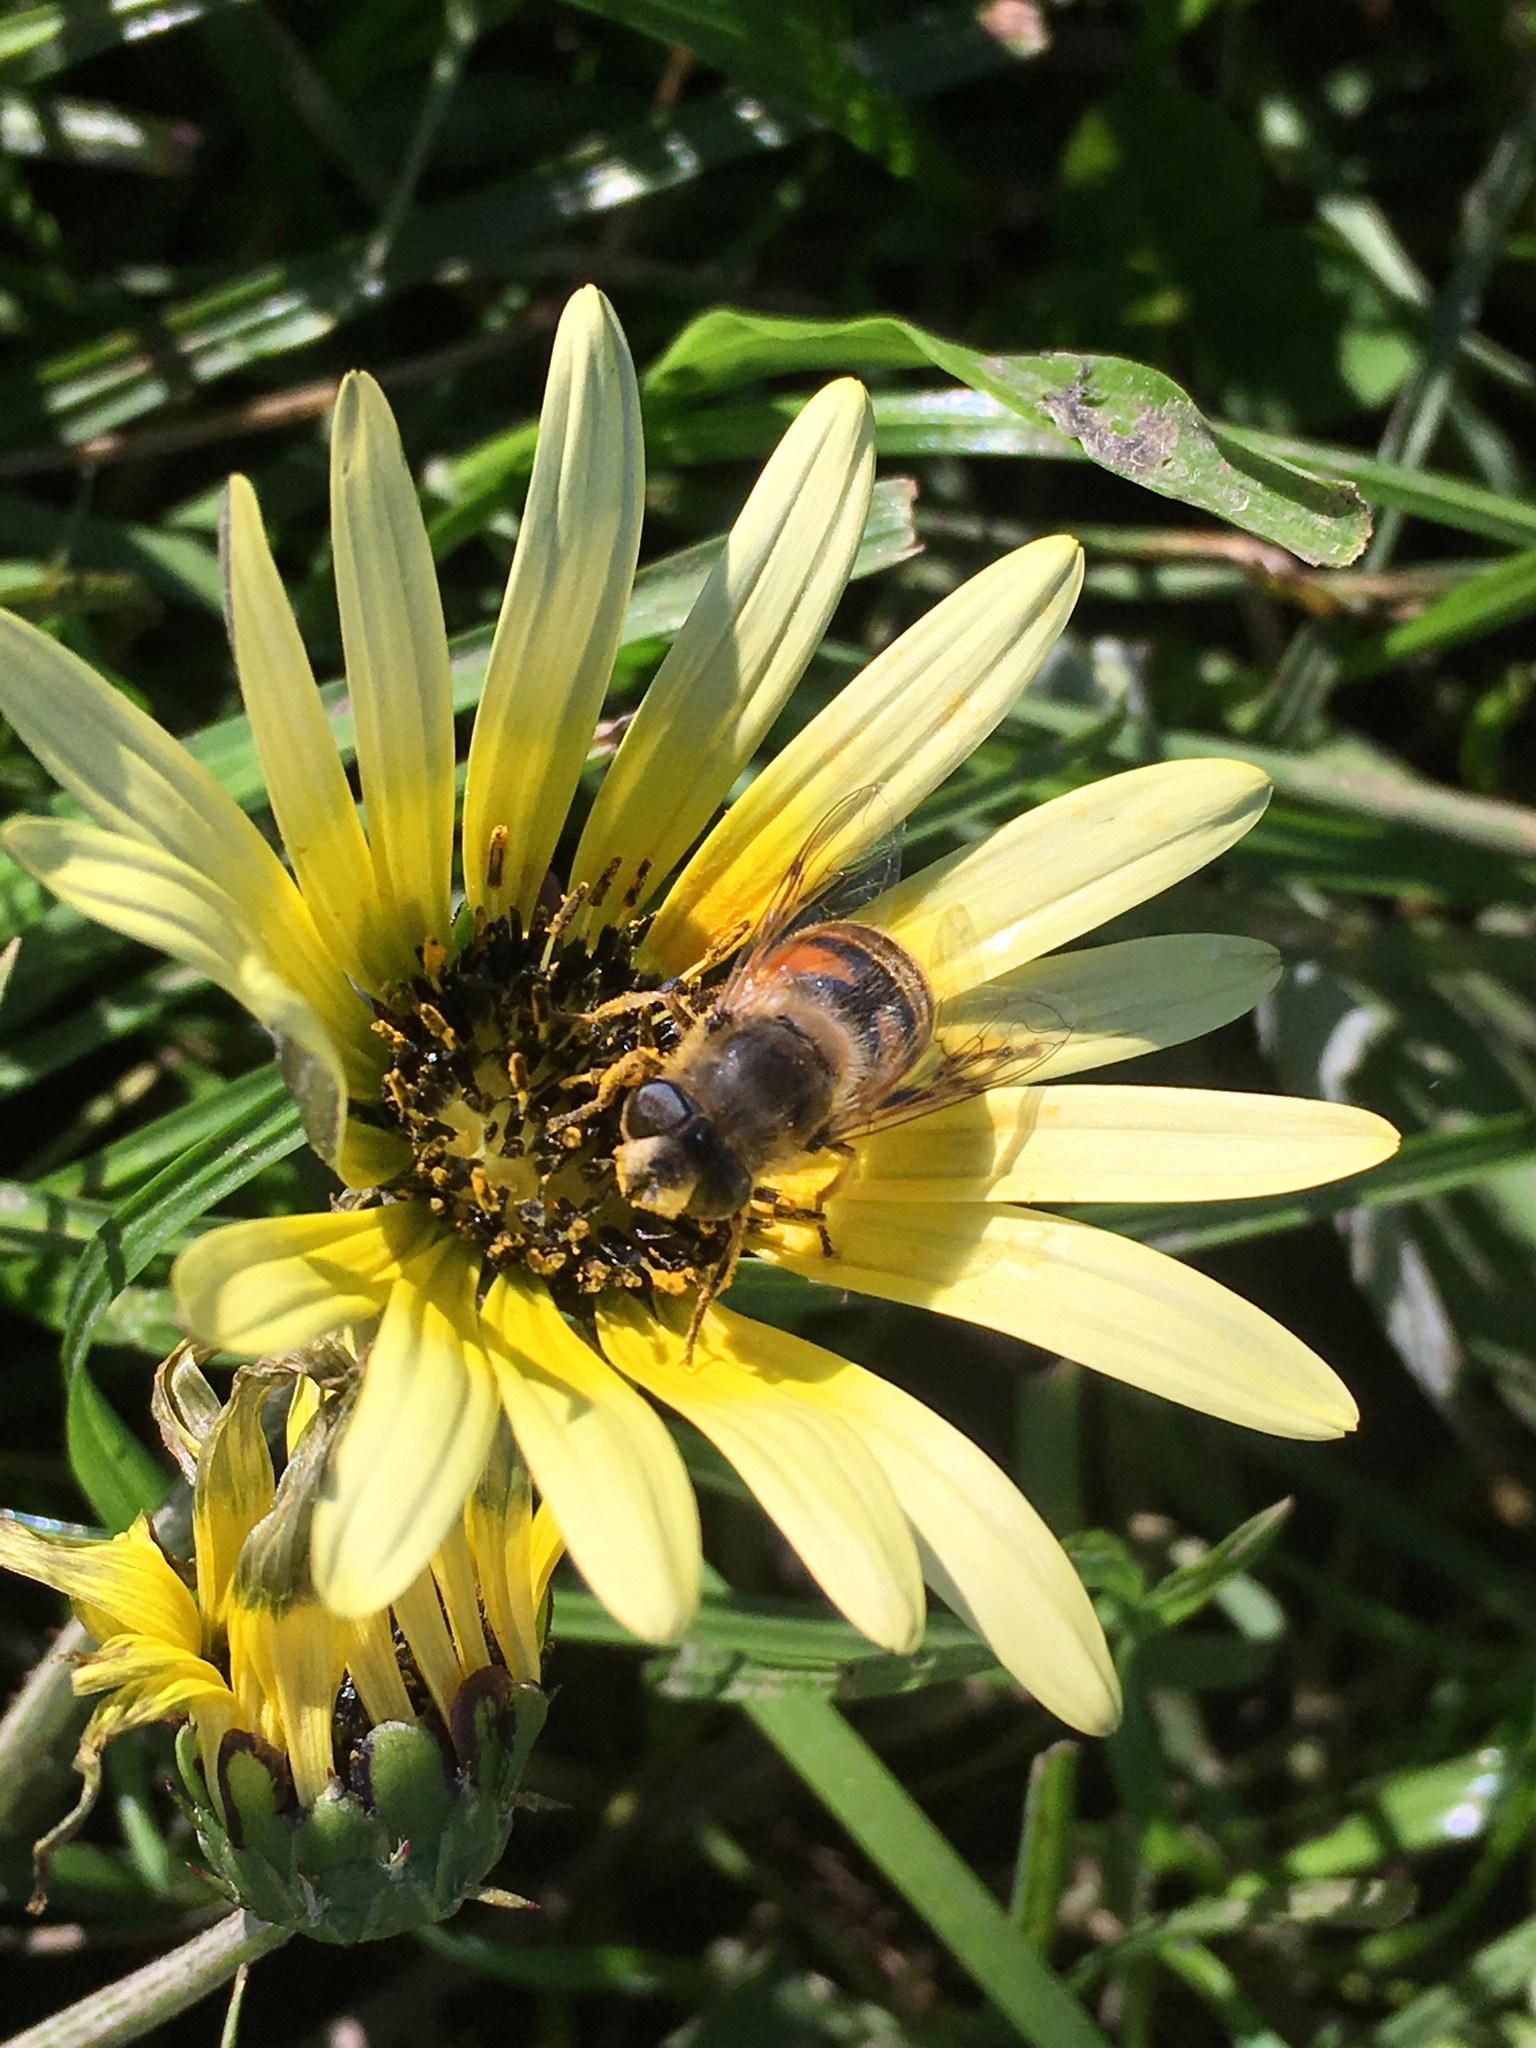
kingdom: Plantae
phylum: Tracheophyta
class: Magnoliopsida
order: Asterales
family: Asteraceae
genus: Arctotheca
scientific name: Arctotheca calendula
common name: Capeweed
